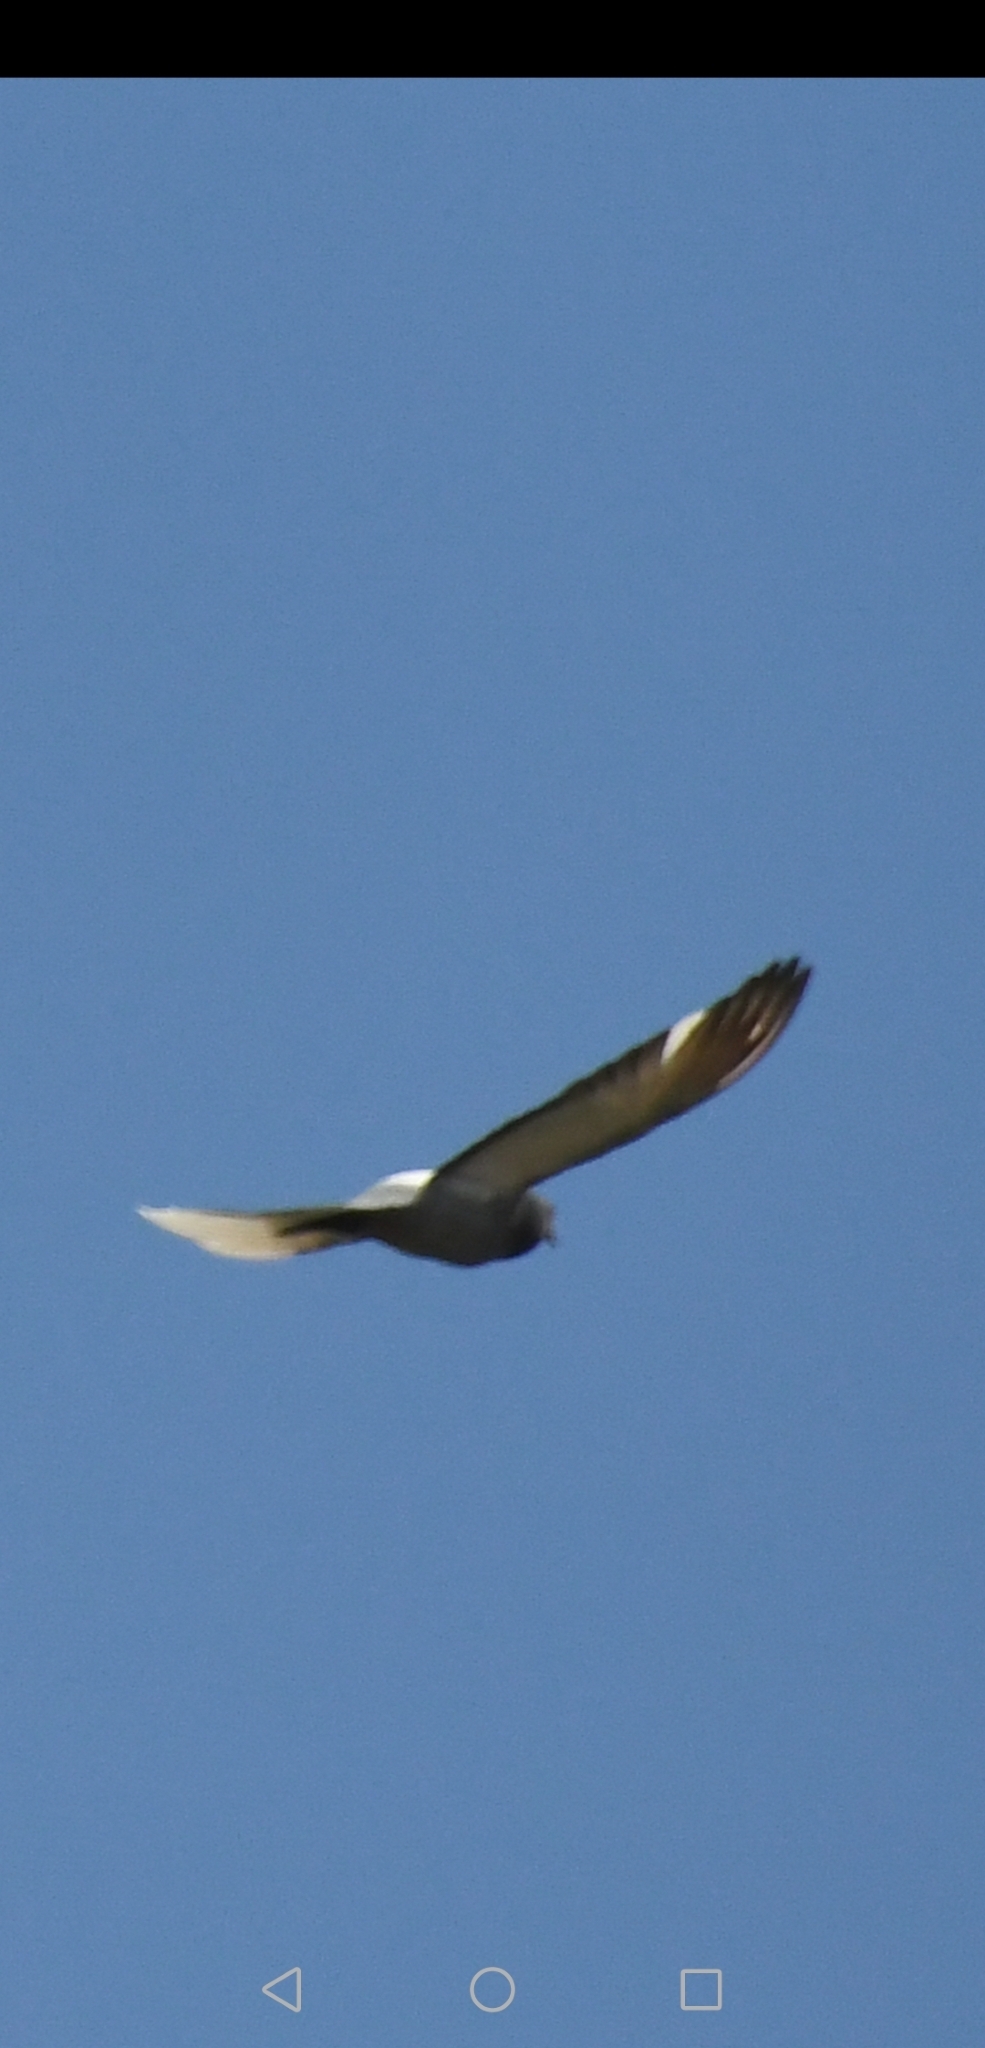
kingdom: Animalia
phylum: Chordata
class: Aves
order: Columbiformes
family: Columbidae
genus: Columba
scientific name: Columba livia
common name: Rock pigeon
